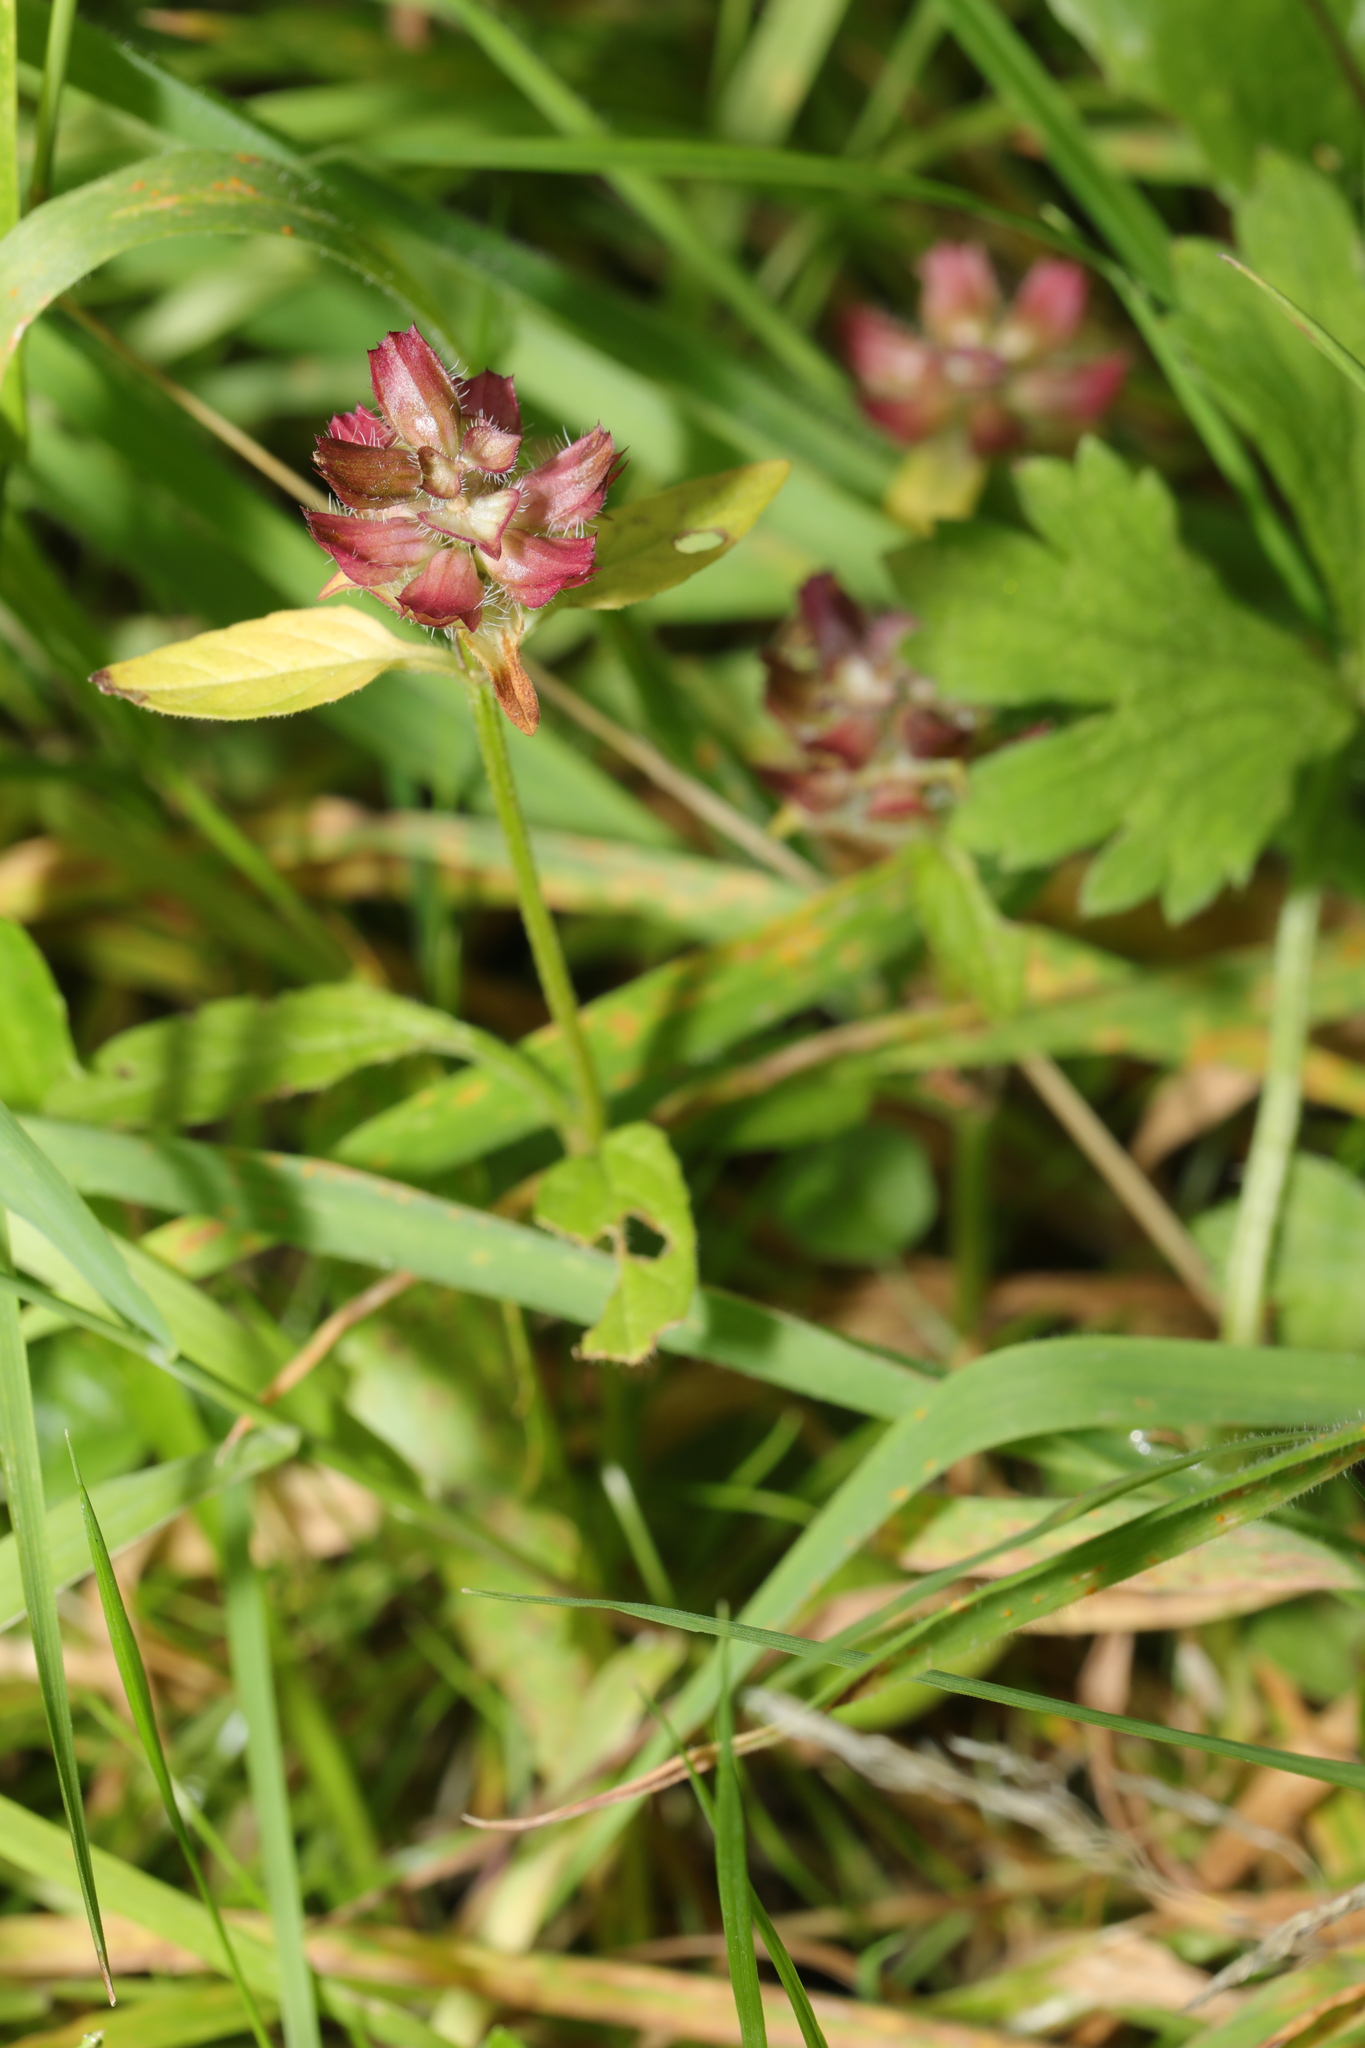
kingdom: Plantae
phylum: Tracheophyta
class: Magnoliopsida
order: Lamiales
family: Lamiaceae
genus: Prunella
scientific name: Prunella vulgaris
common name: Heal-all
